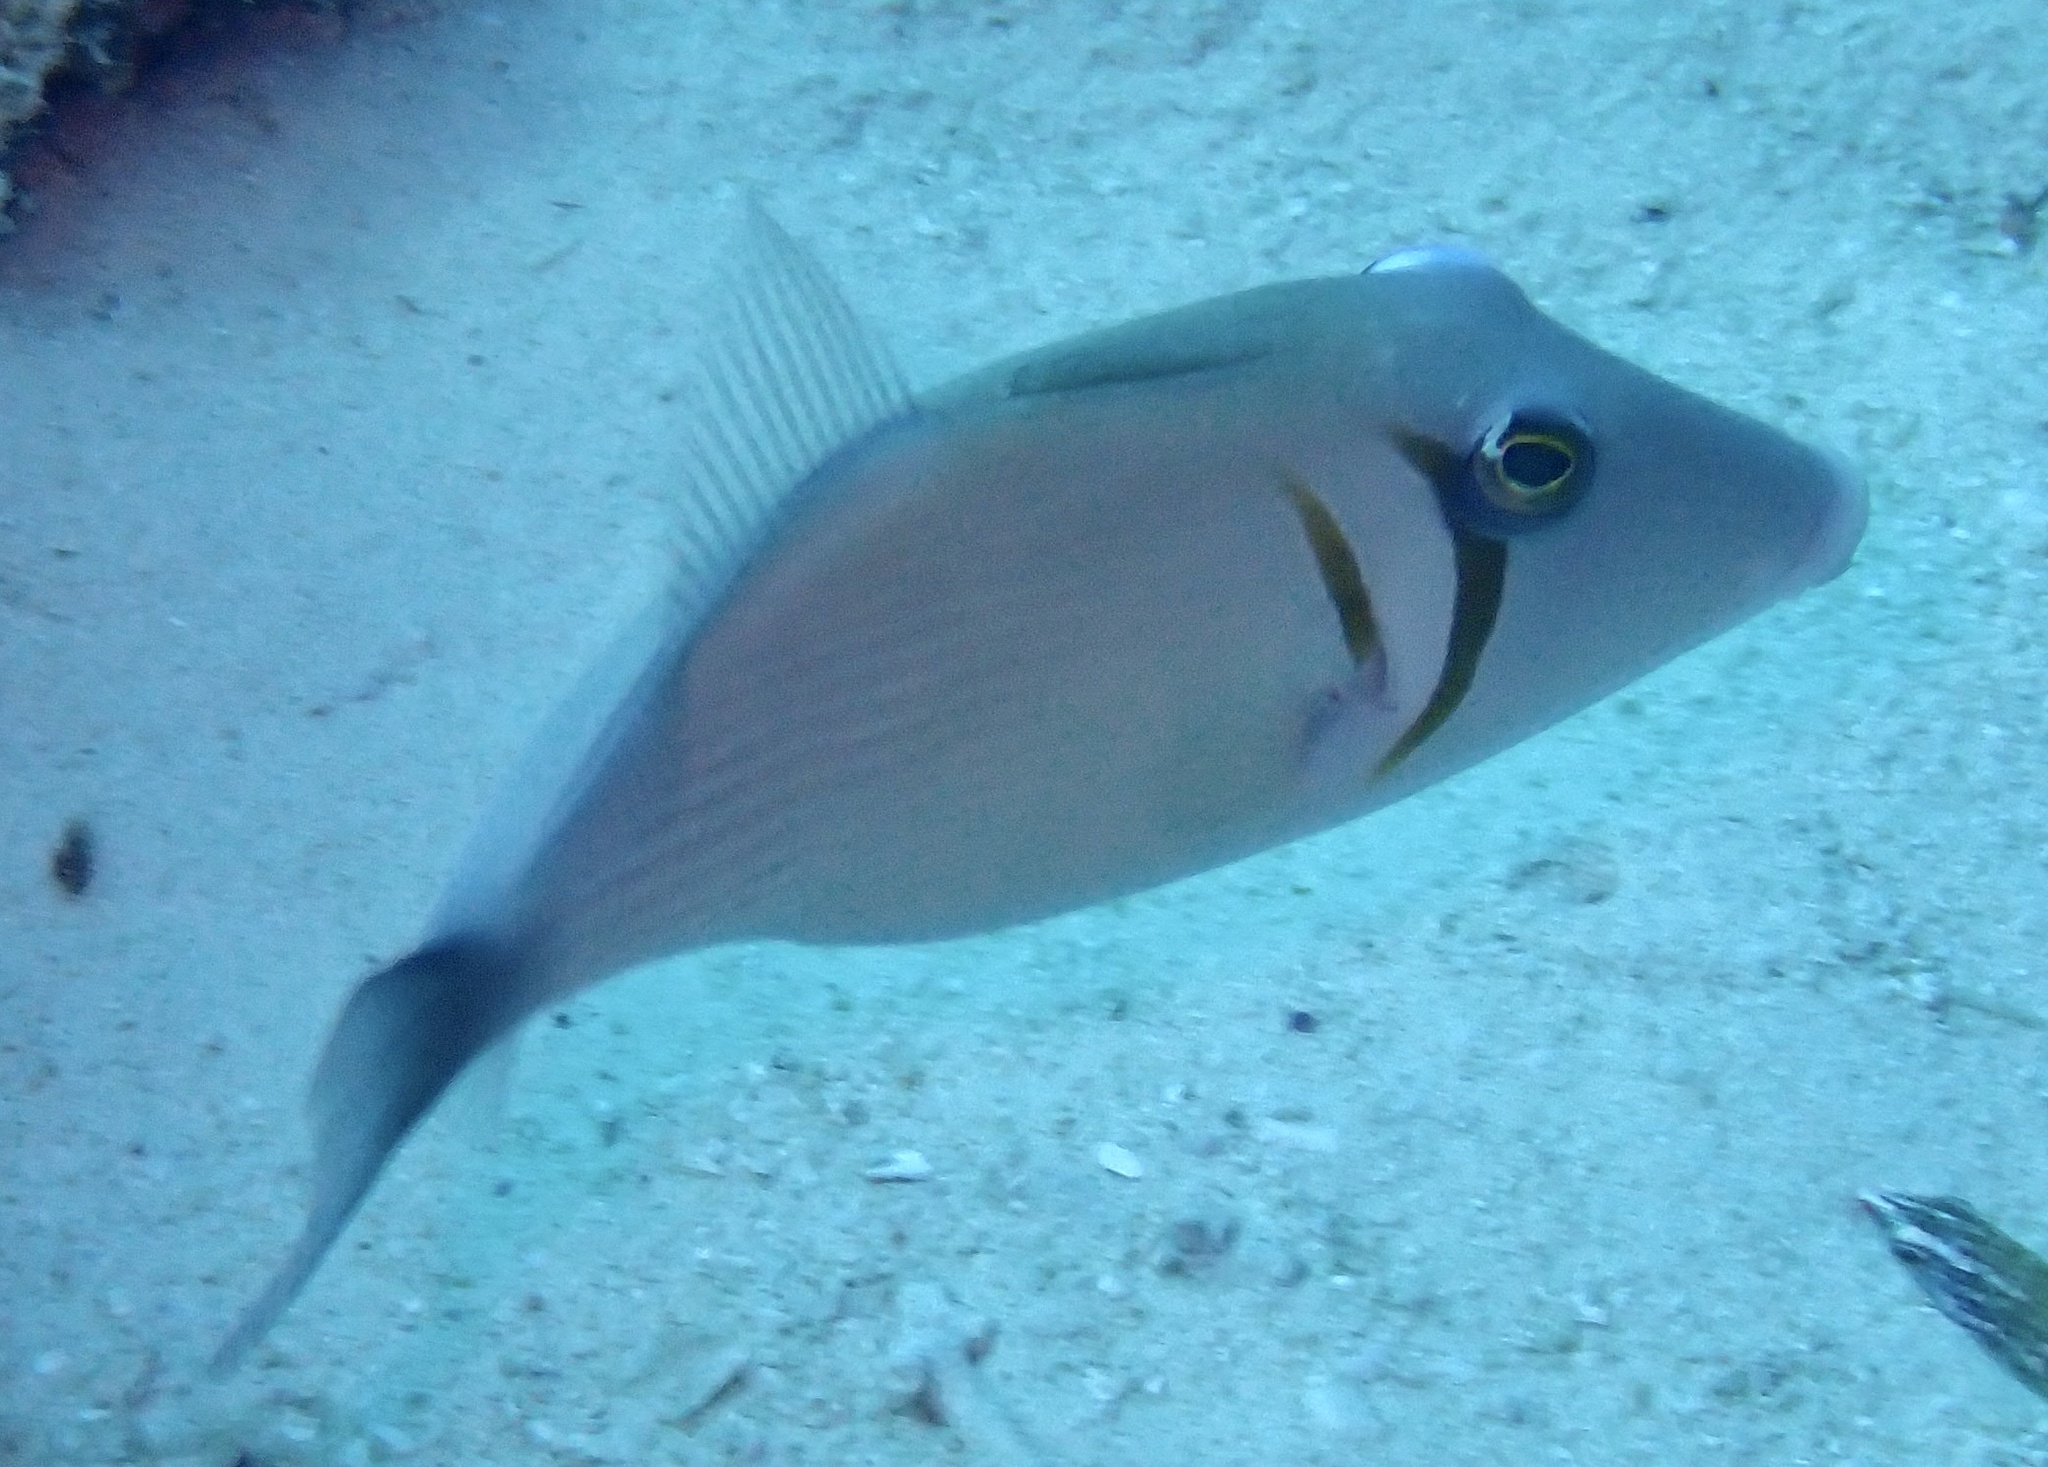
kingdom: Animalia
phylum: Chordata
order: Tetraodontiformes
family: Balistidae
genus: Sufflamen
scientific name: Sufflamen bursa
